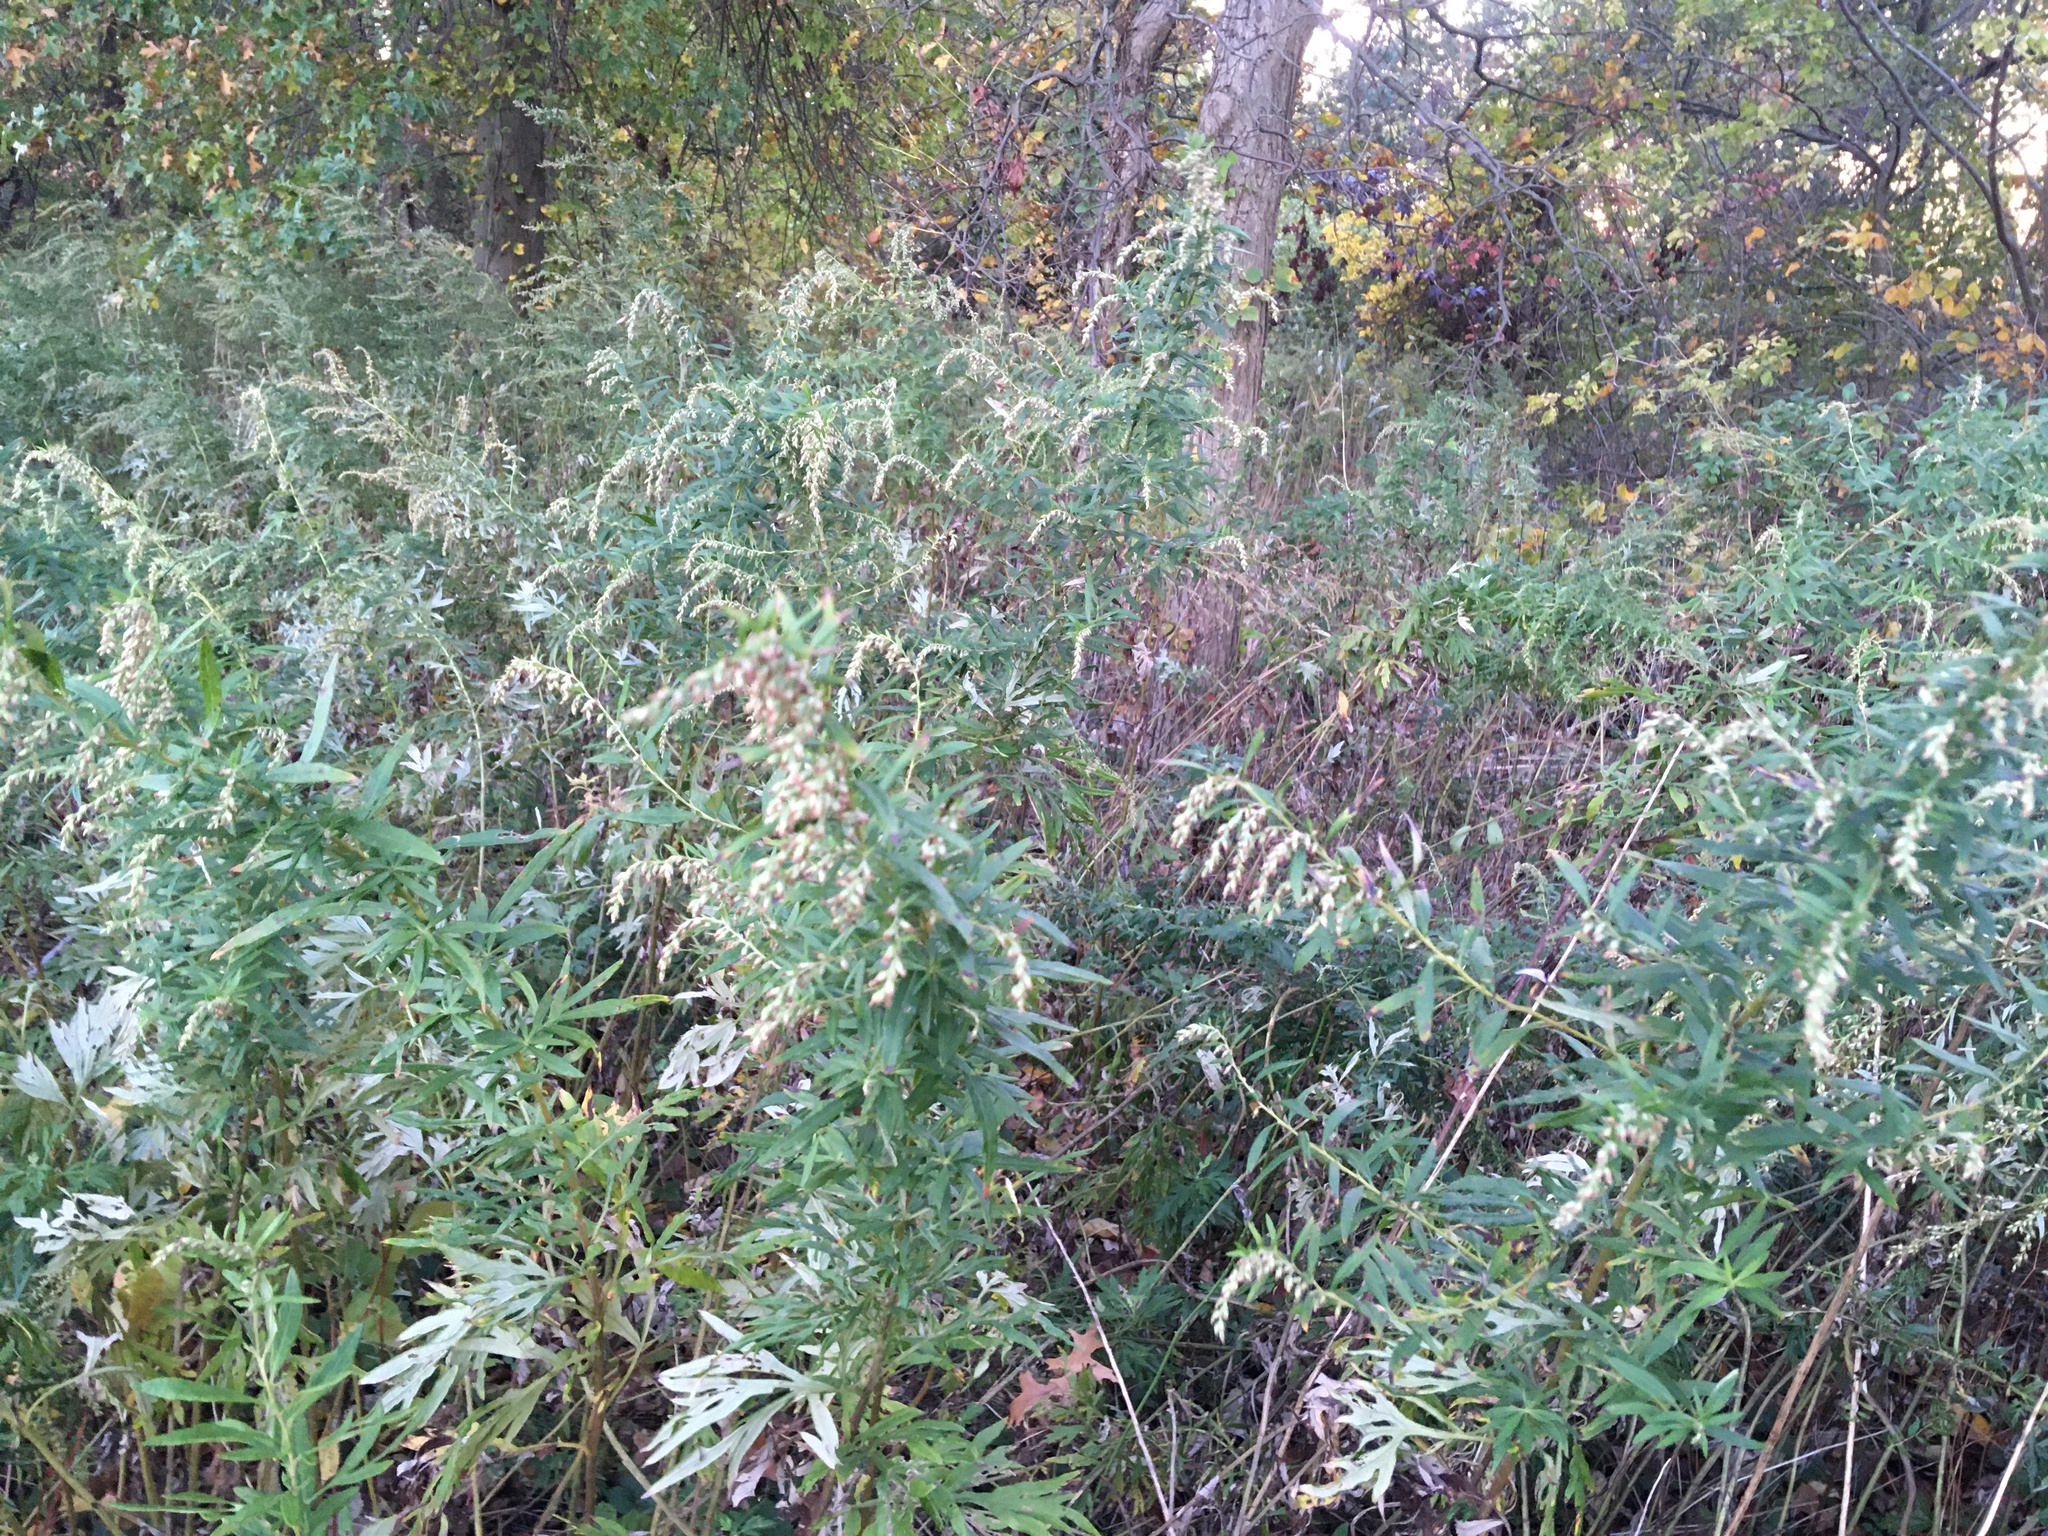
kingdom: Plantae
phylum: Tracheophyta
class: Magnoliopsida
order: Asterales
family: Asteraceae
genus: Artemisia
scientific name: Artemisia vulgaris
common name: Mugwort
